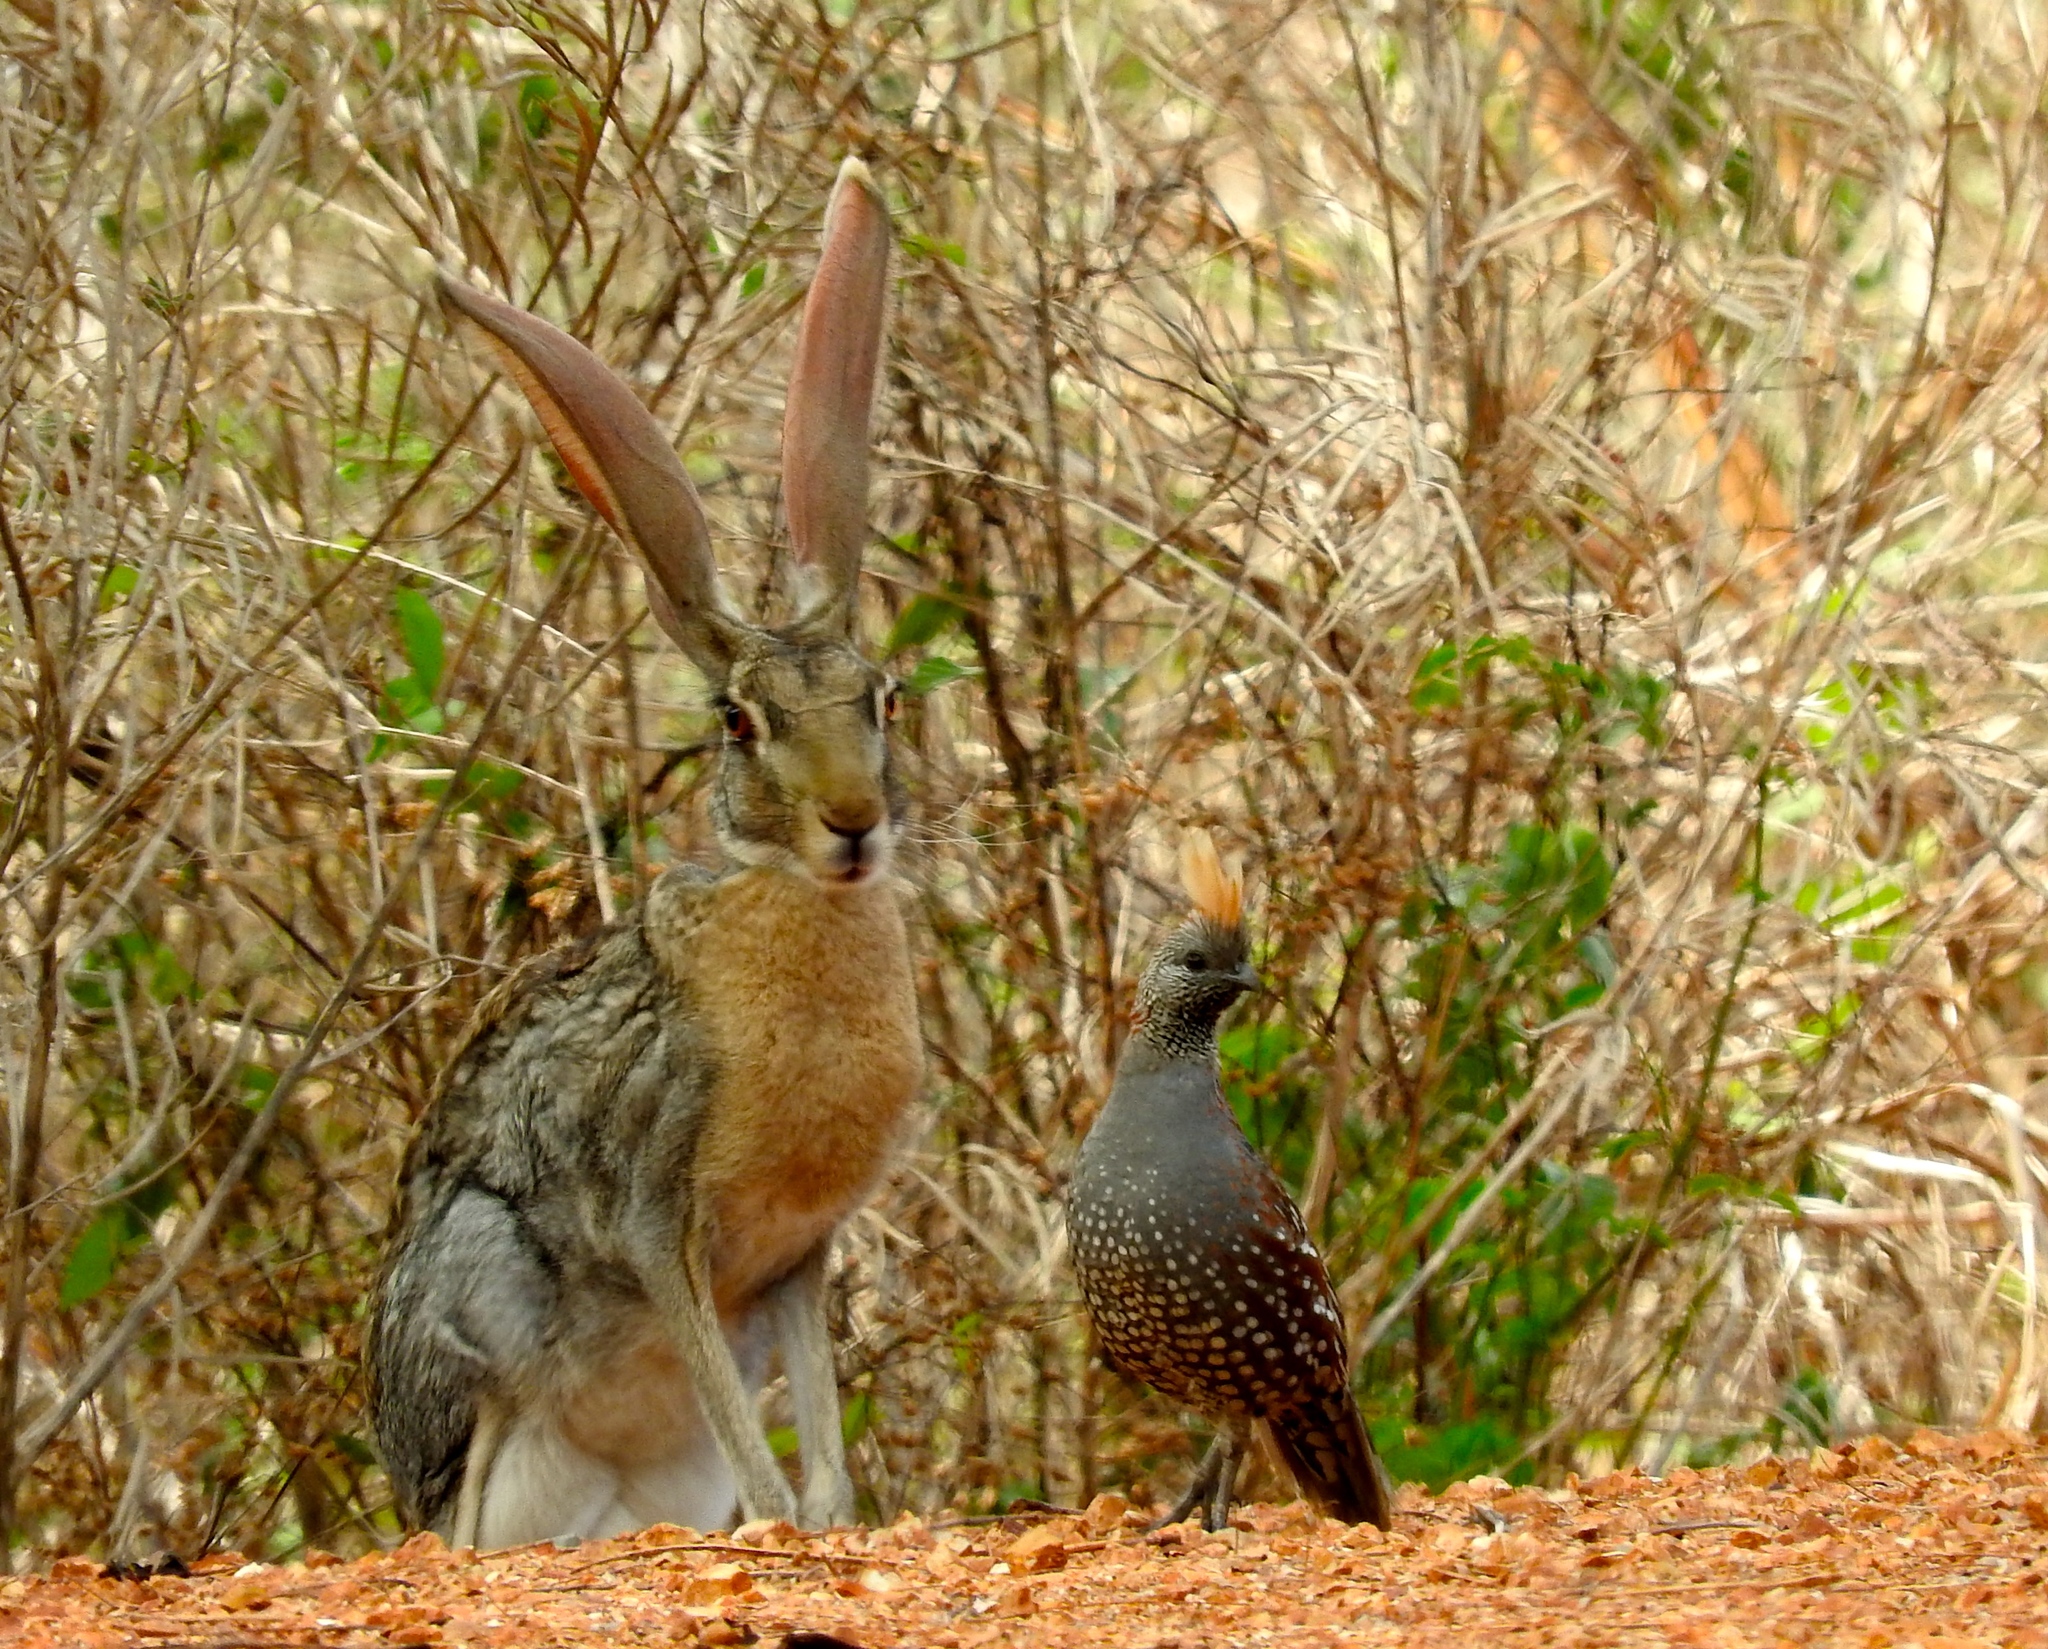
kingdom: Animalia
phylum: Chordata
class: Mammalia
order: Lagomorpha
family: Leporidae
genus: Lepus
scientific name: Lepus alleni
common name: Antelope jackrabbit
